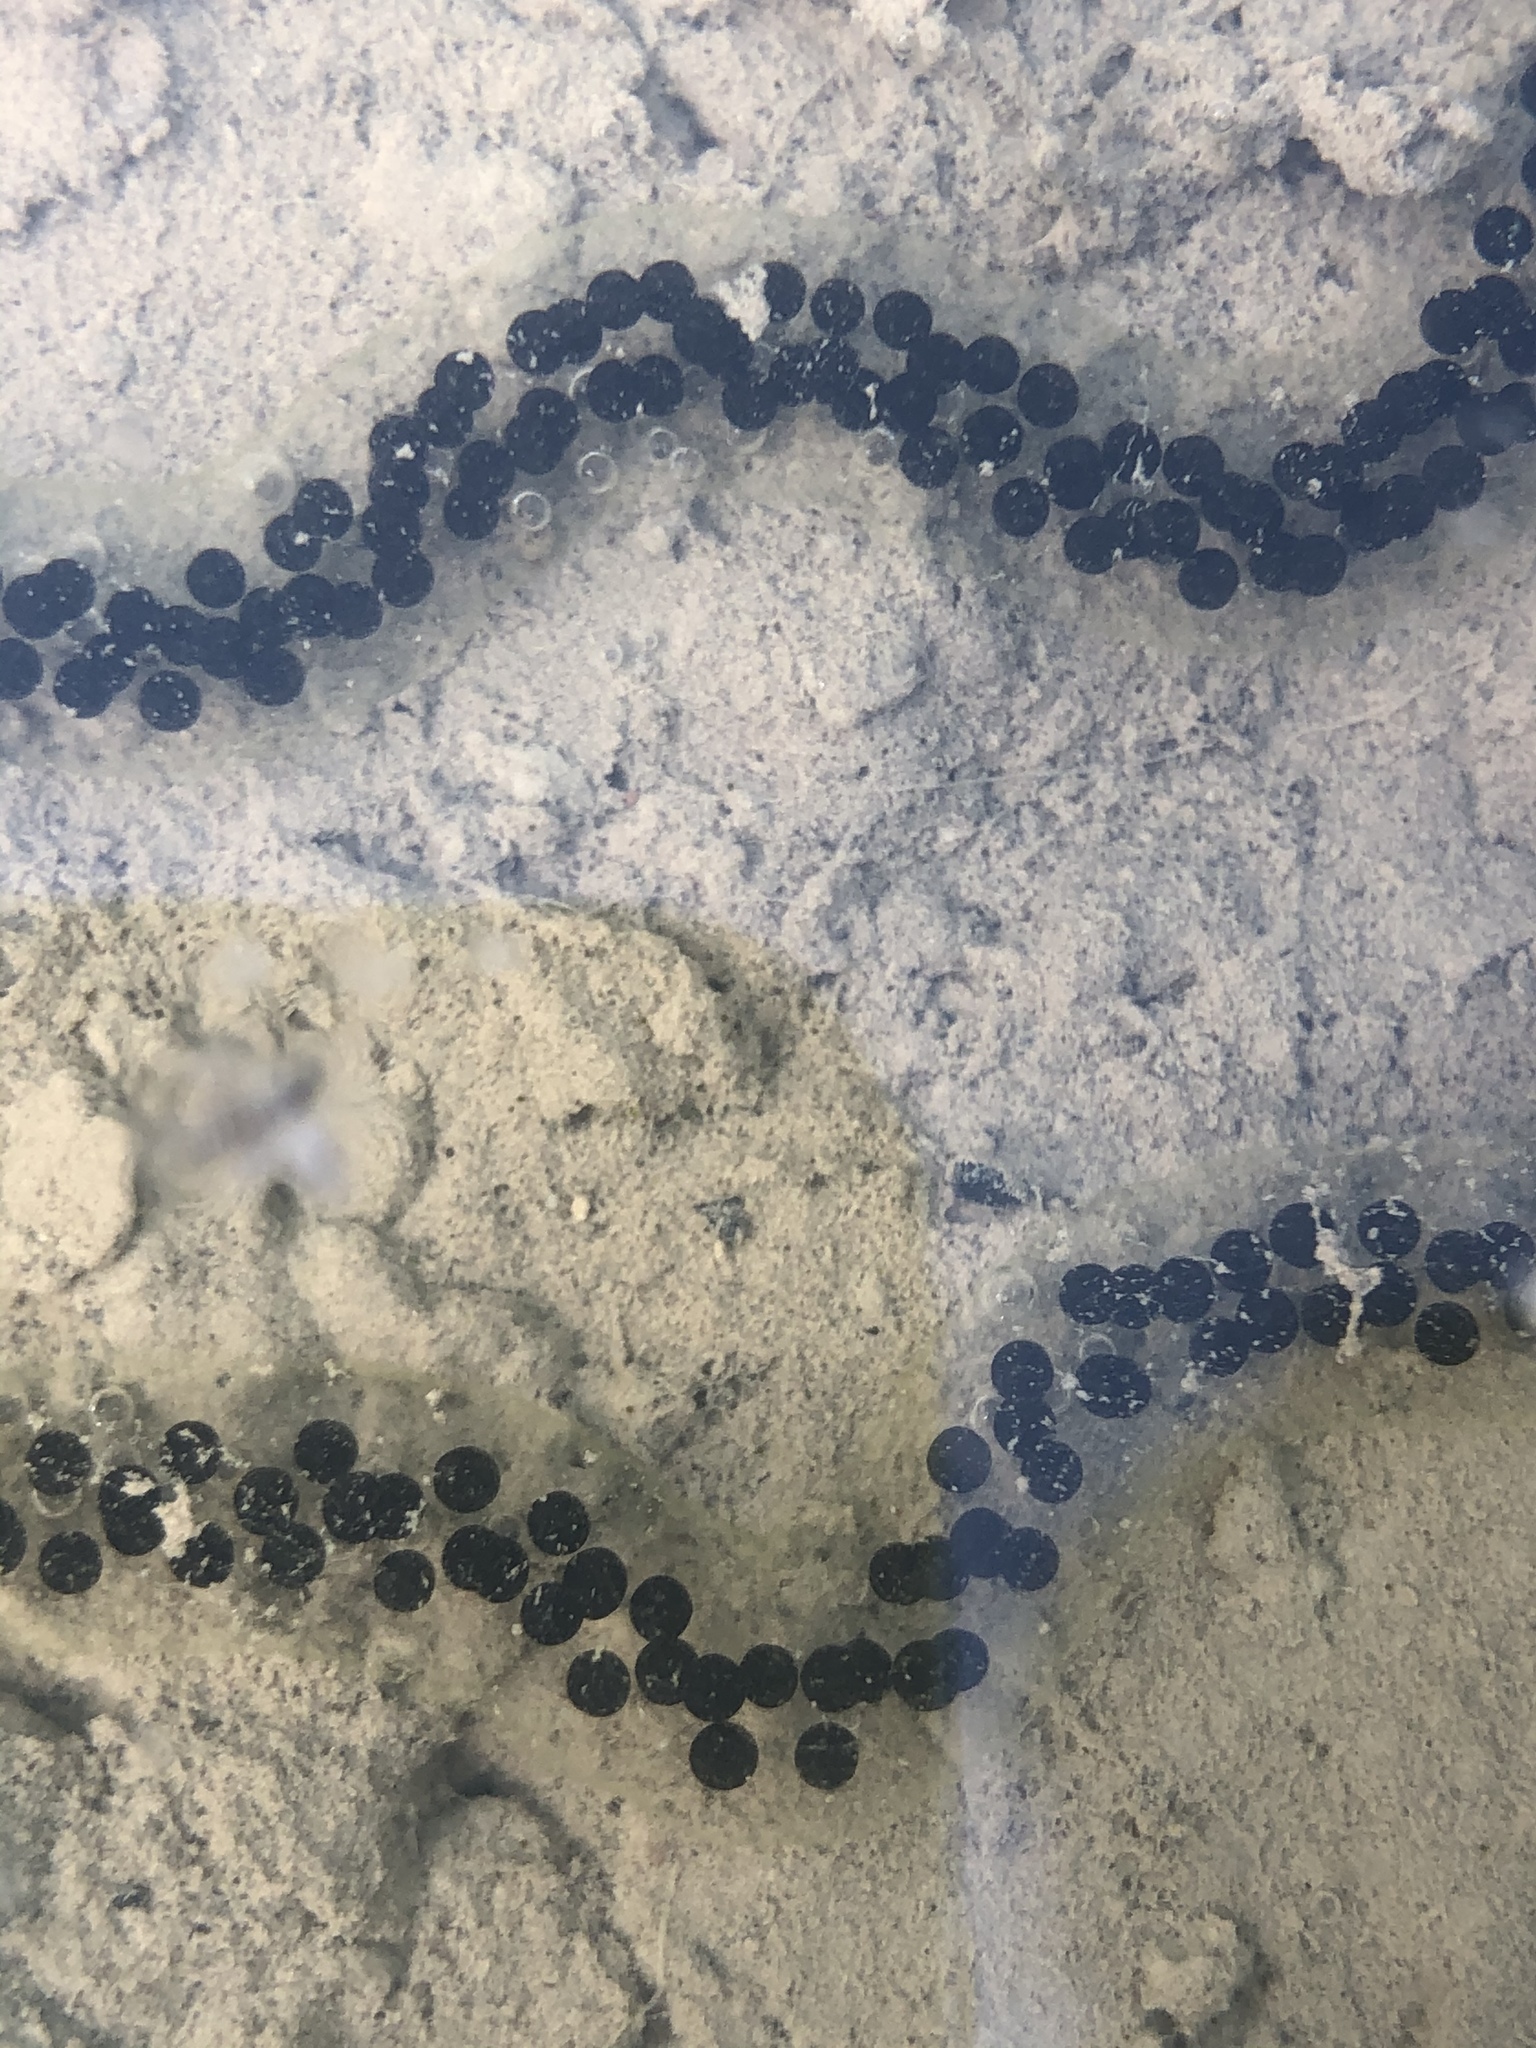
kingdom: Animalia
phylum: Chordata
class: Amphibia
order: Anura
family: Bufonidae
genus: Epidalea
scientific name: Epidalea calamita
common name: Natterjack toad
